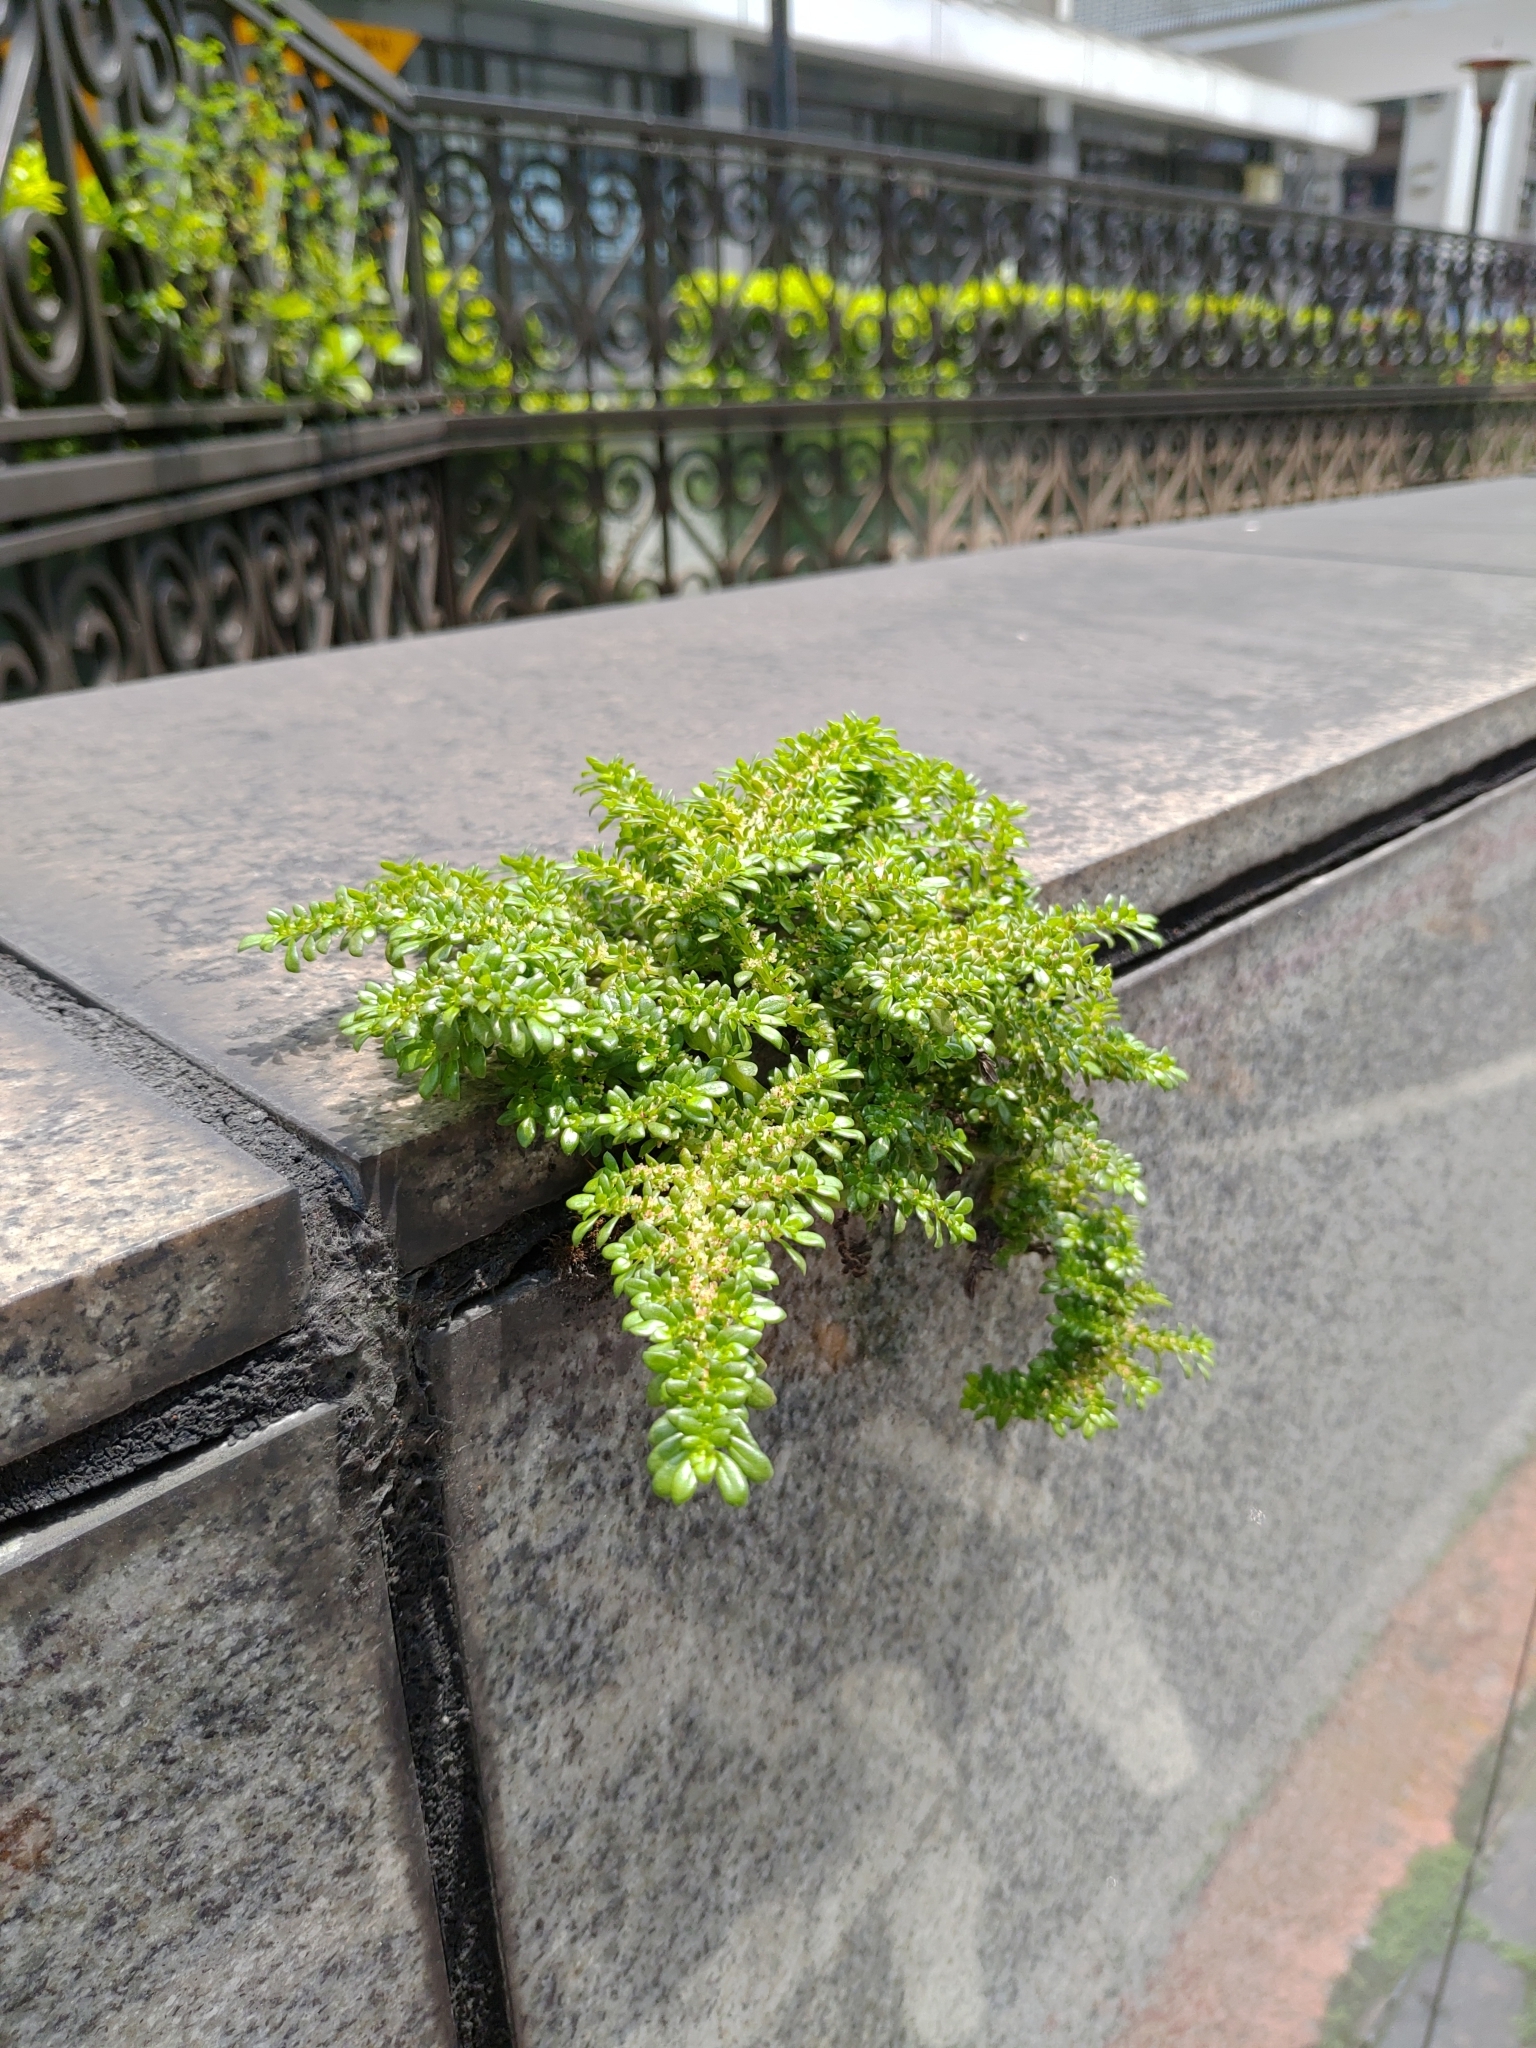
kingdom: Plantae
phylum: Tracheophyta
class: Magnoliopsida
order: Rosales
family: Urticaceae
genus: Pilea
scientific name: Pilea microphylla
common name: Artillery-plant
